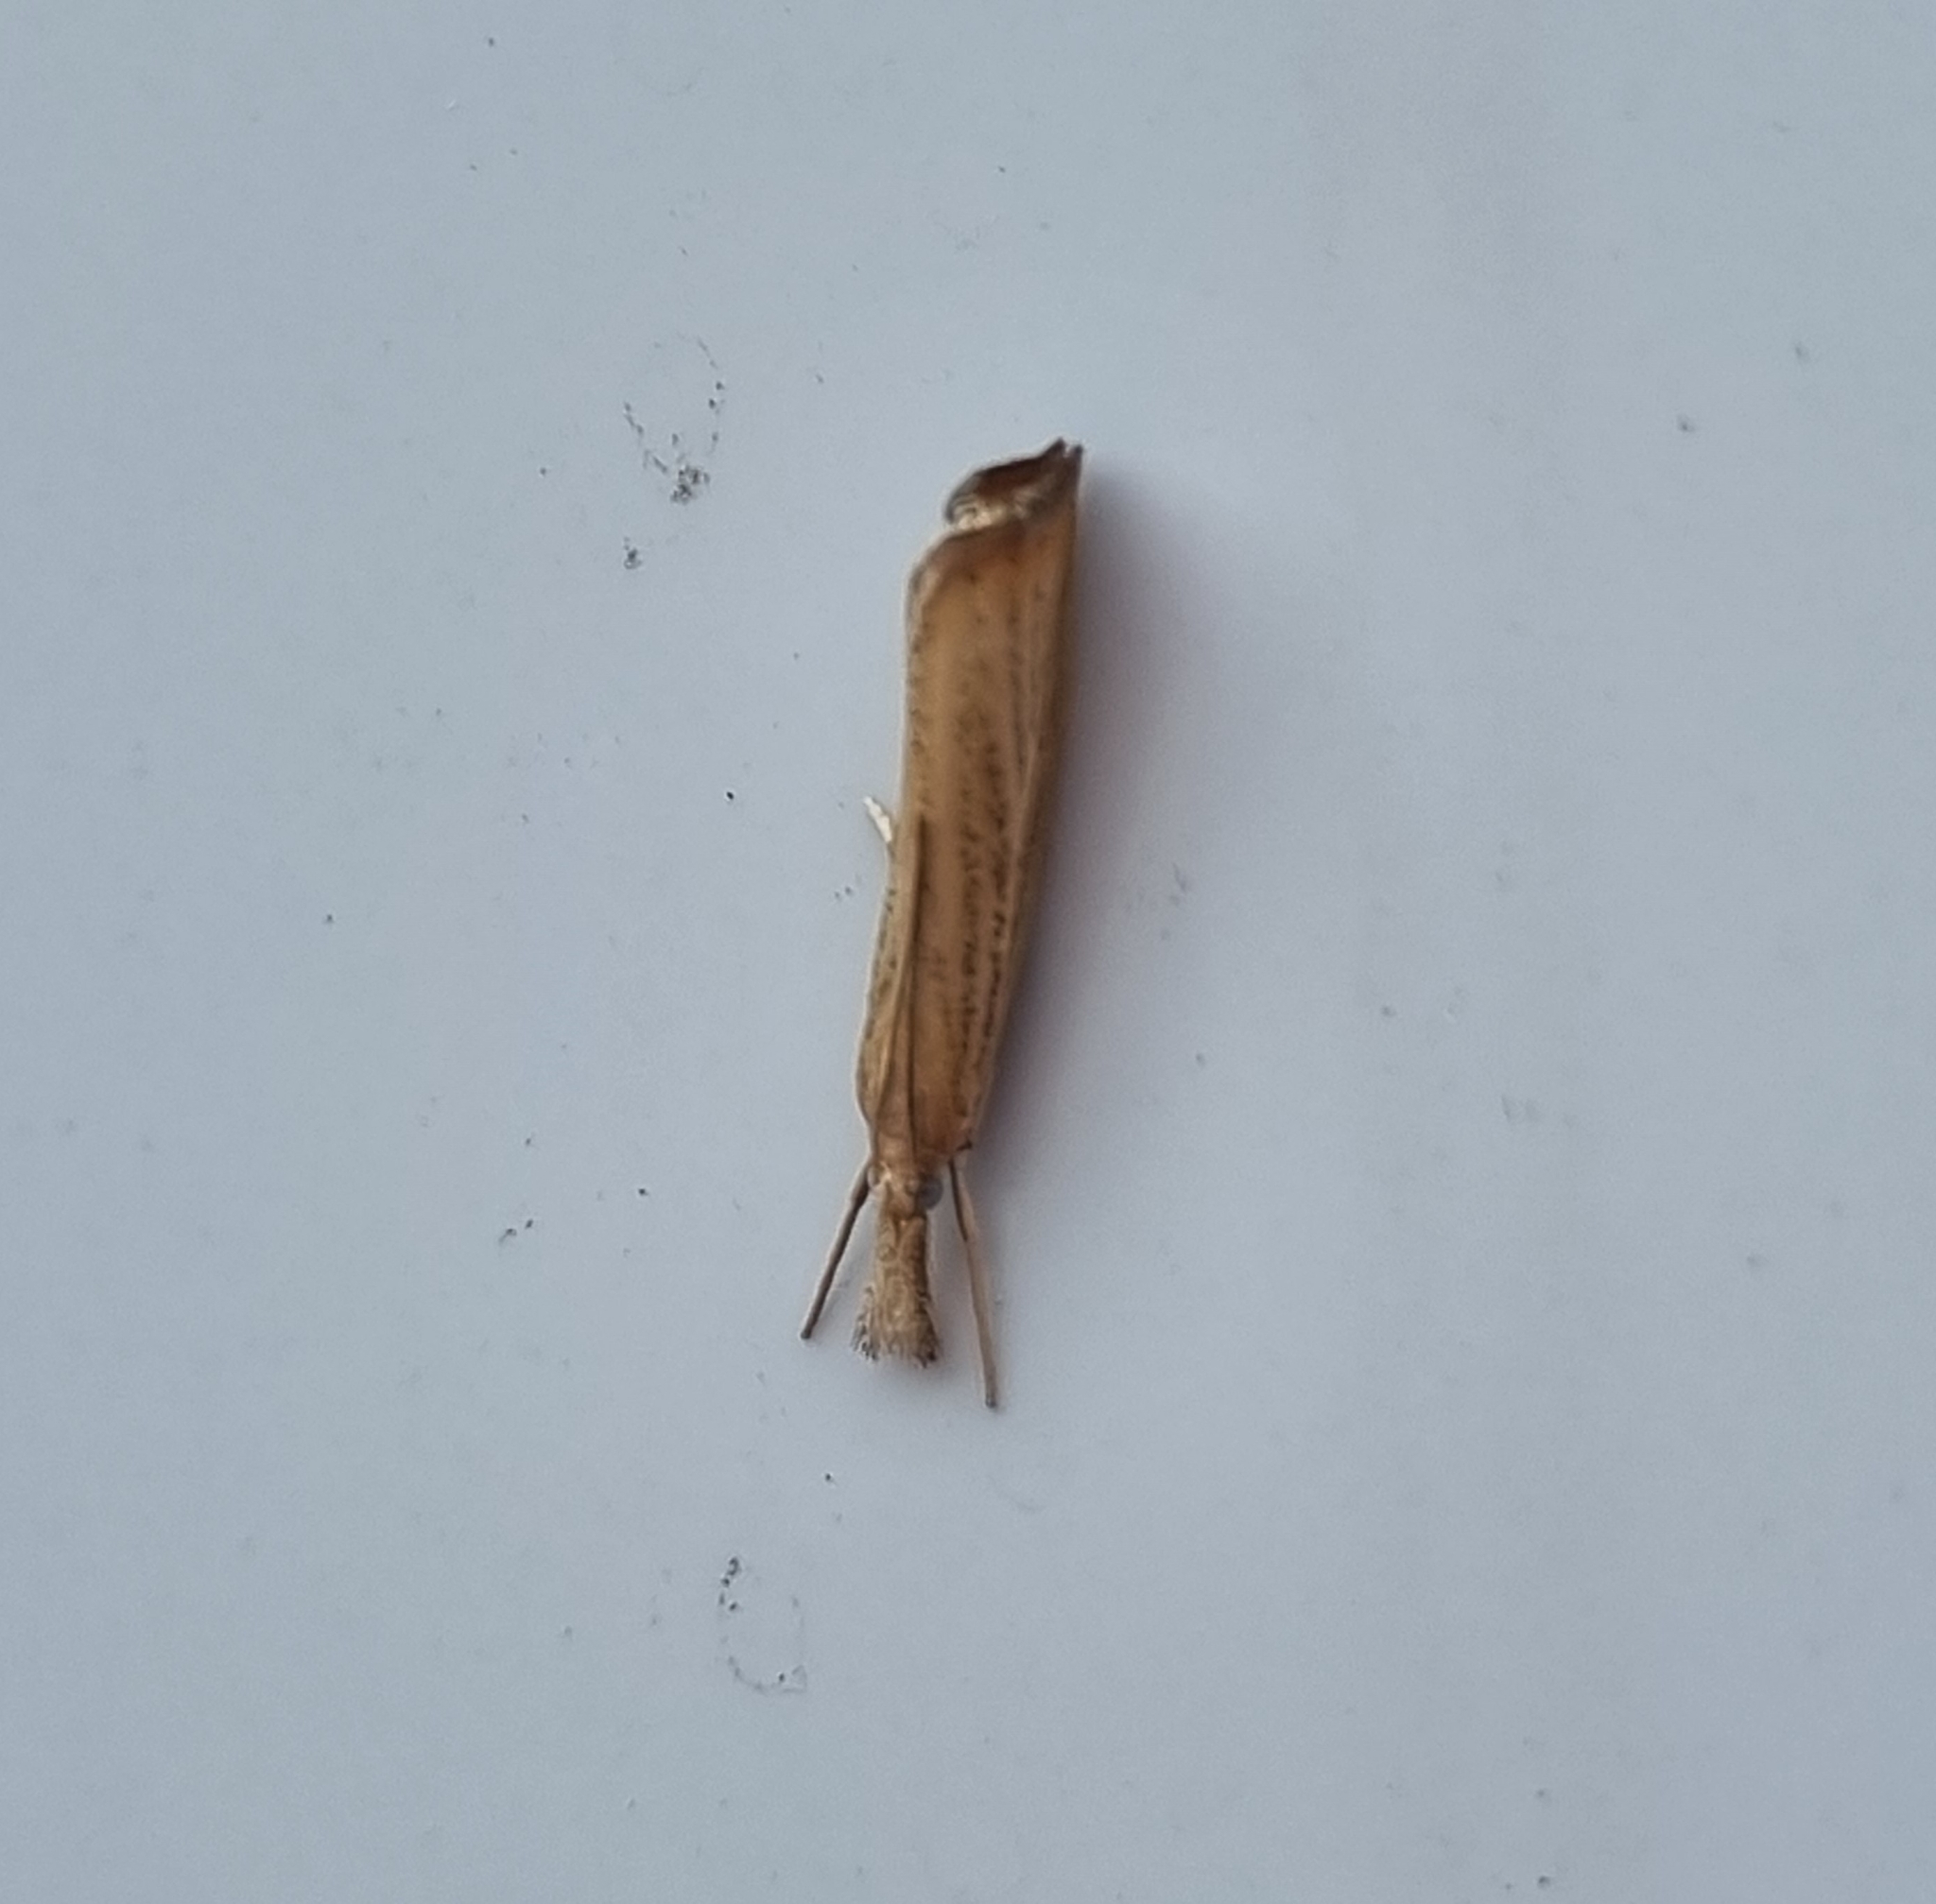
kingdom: Animalia
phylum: Arthropoda
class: Insecta
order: Lepidoptera
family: Crambidae
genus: Agriphila
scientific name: Agriphila straminella
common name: Straw grass-veneer
